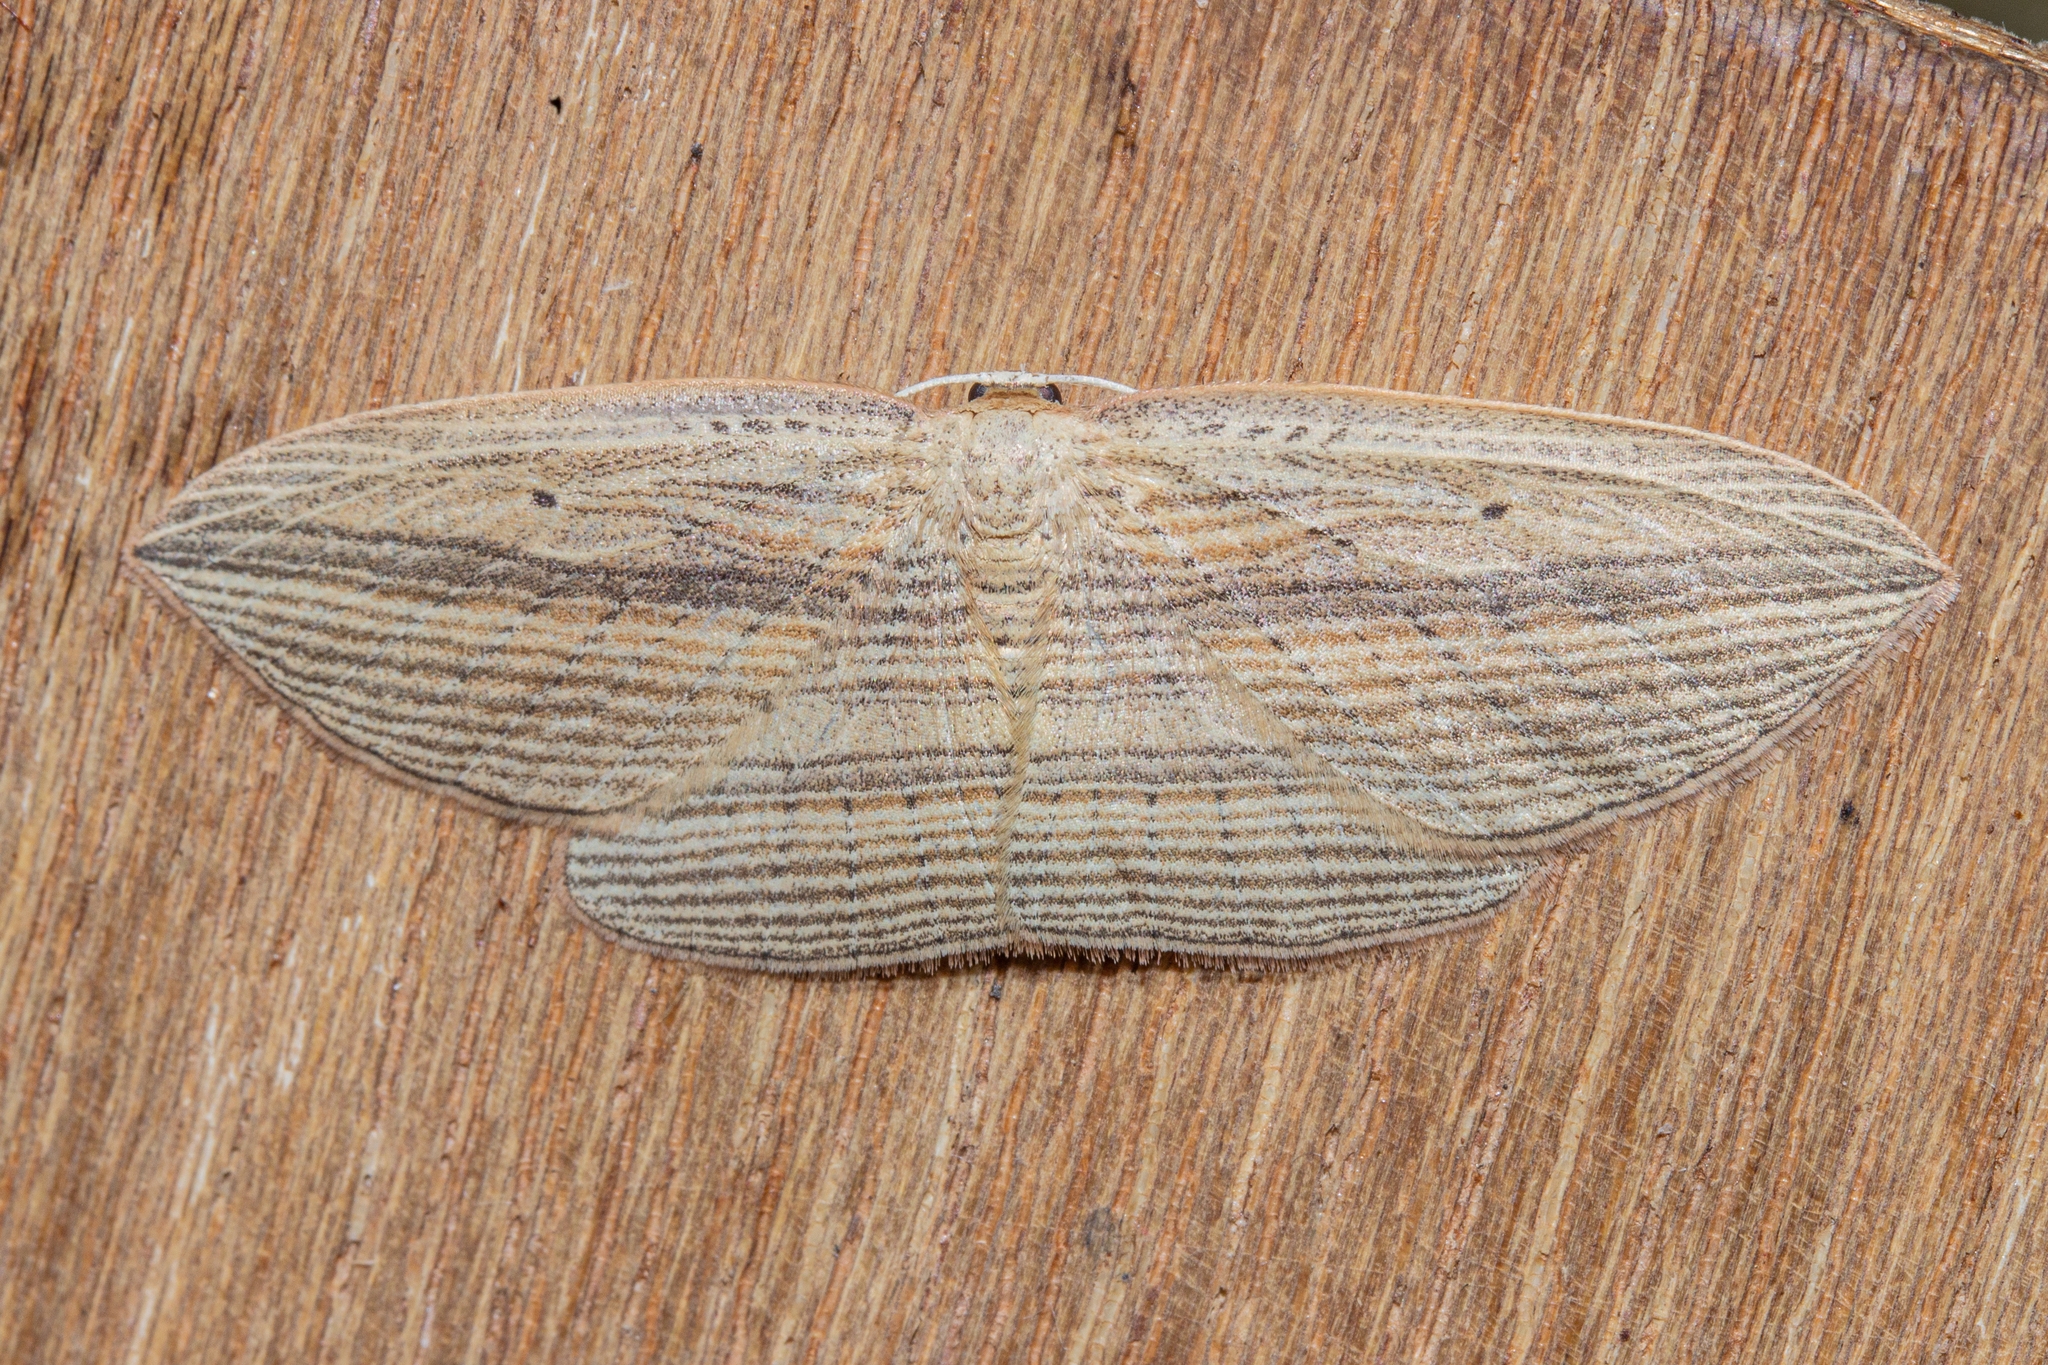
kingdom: Animalia
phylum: Arthropoda
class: Insecta
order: Lepidoptera
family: Geometridae
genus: Epiphryne
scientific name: Epiphryne verriculata
